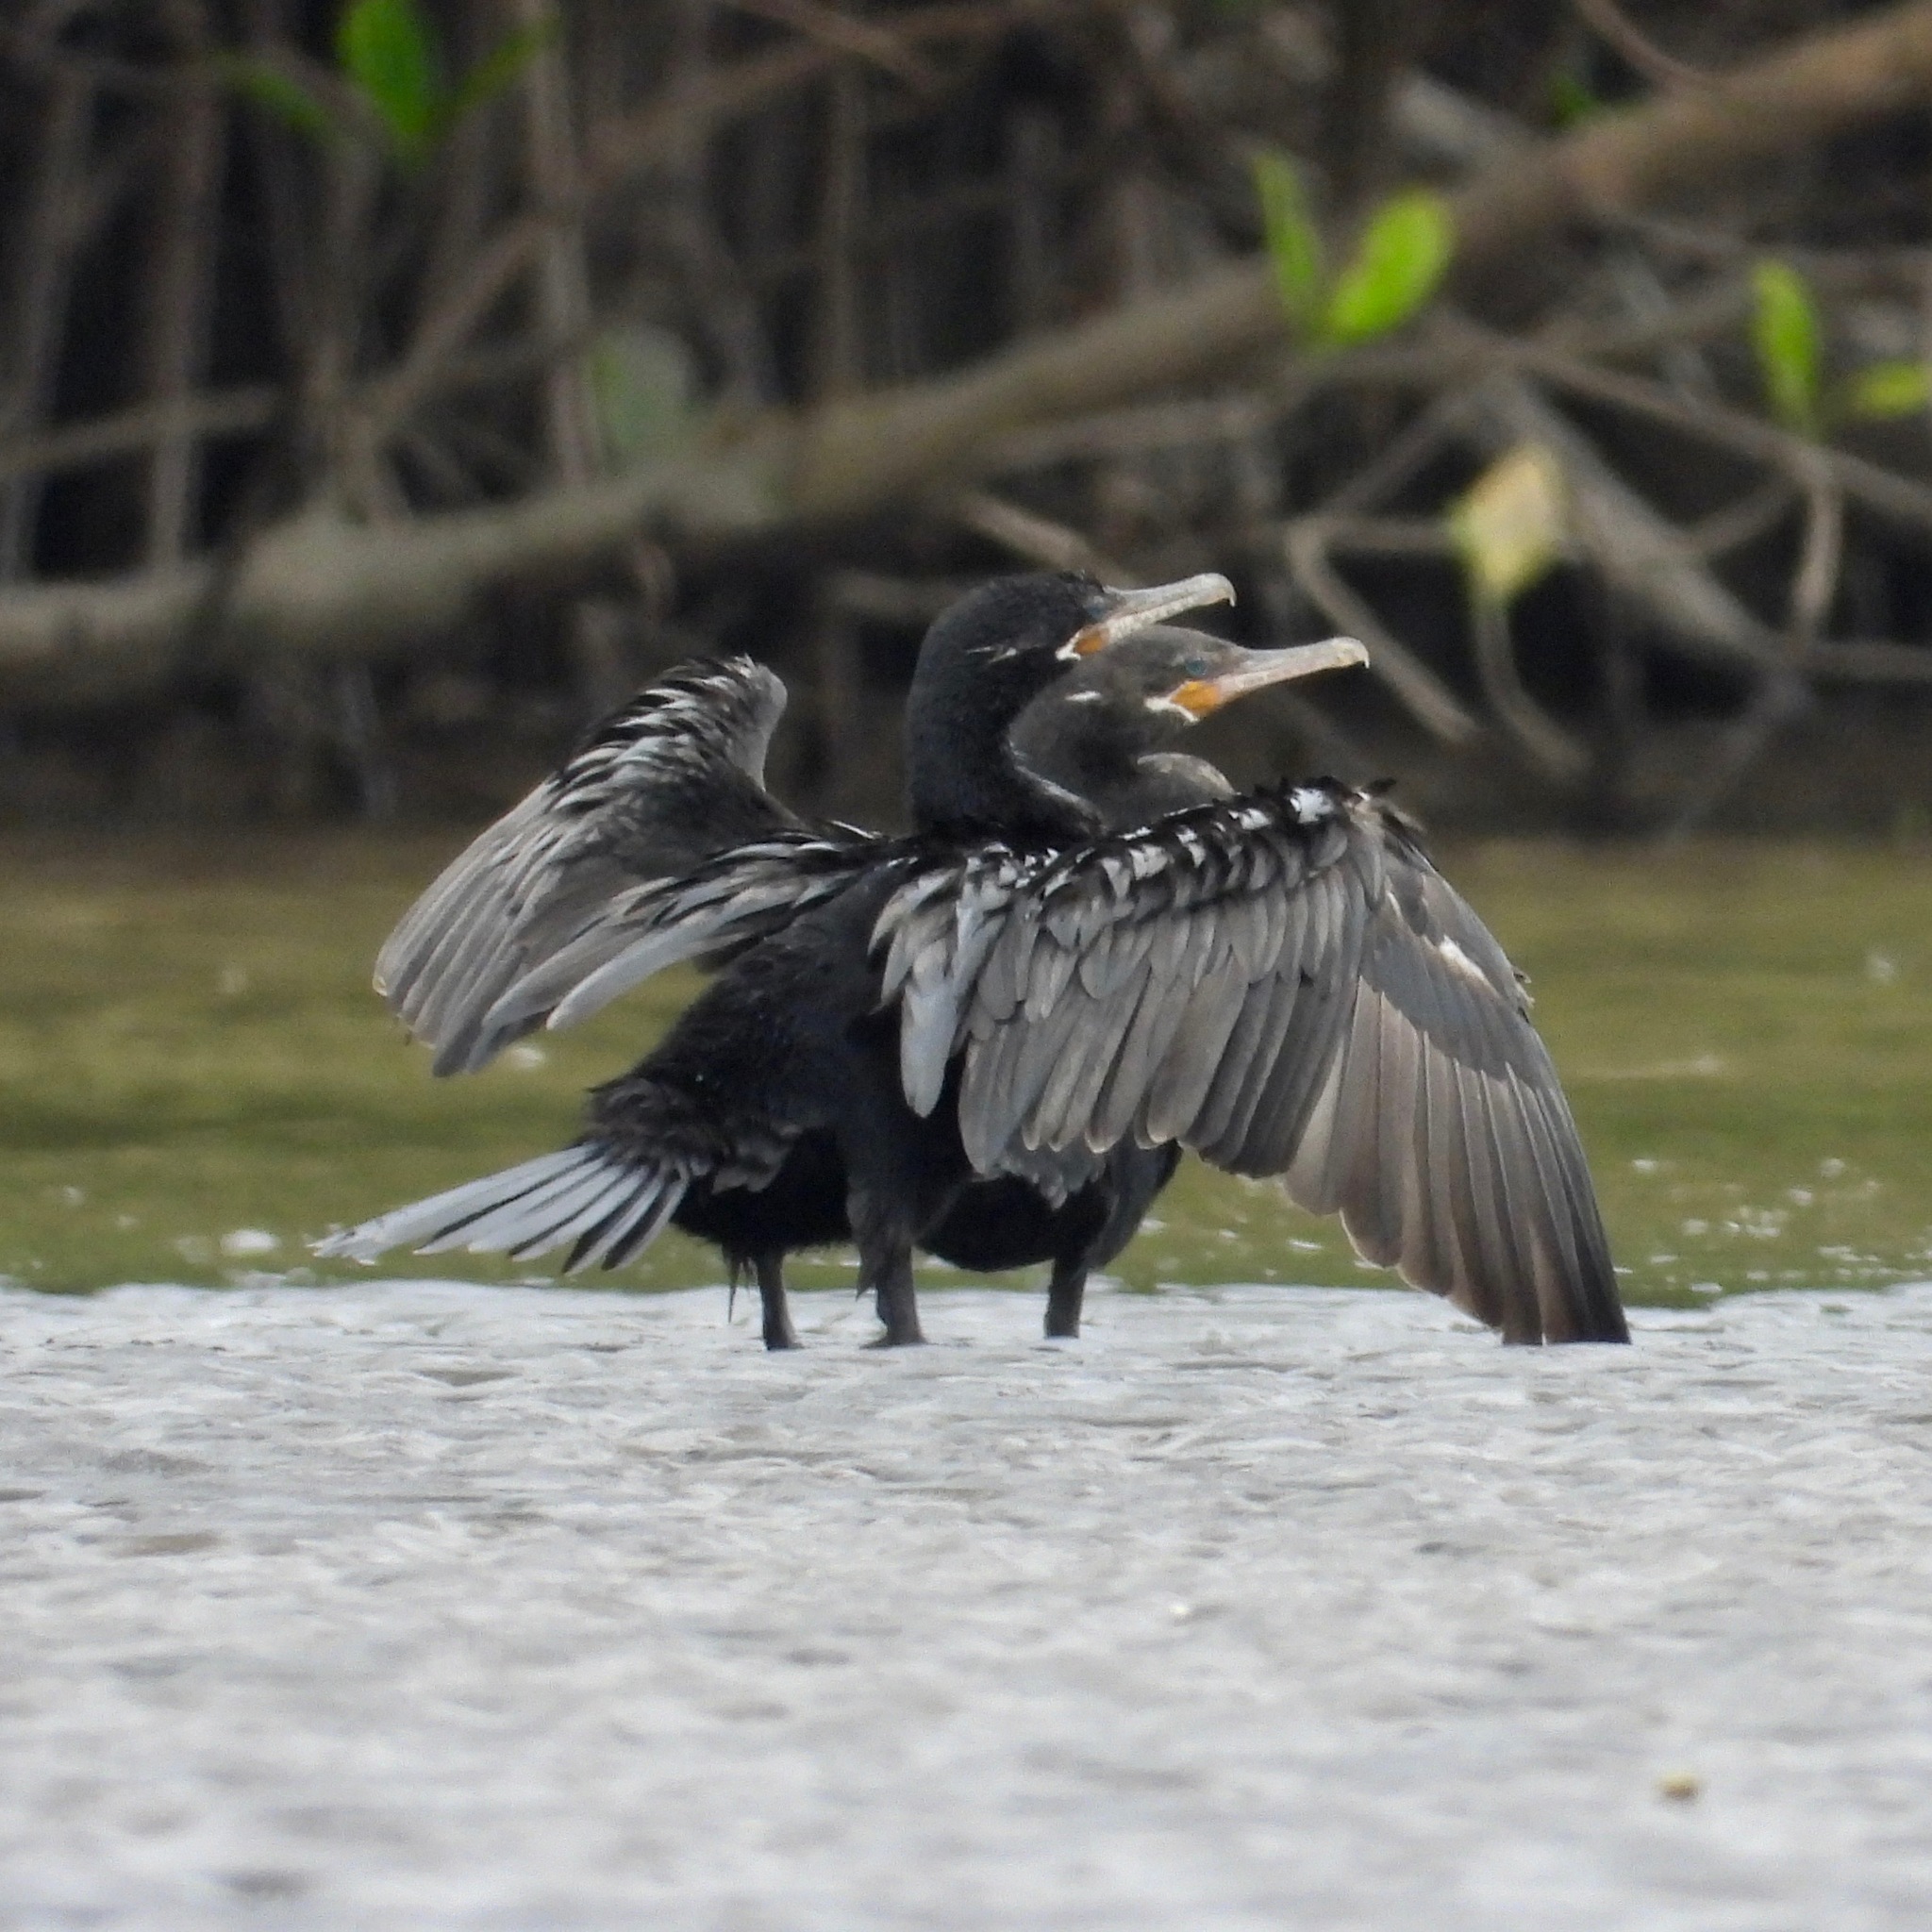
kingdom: Animalia
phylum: Chordata
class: Aves
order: Suliformes
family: Phalacrocoracidae
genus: Phalacrocorax
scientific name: Phalacrocorax brasilianus
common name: Neotropic cormorant
